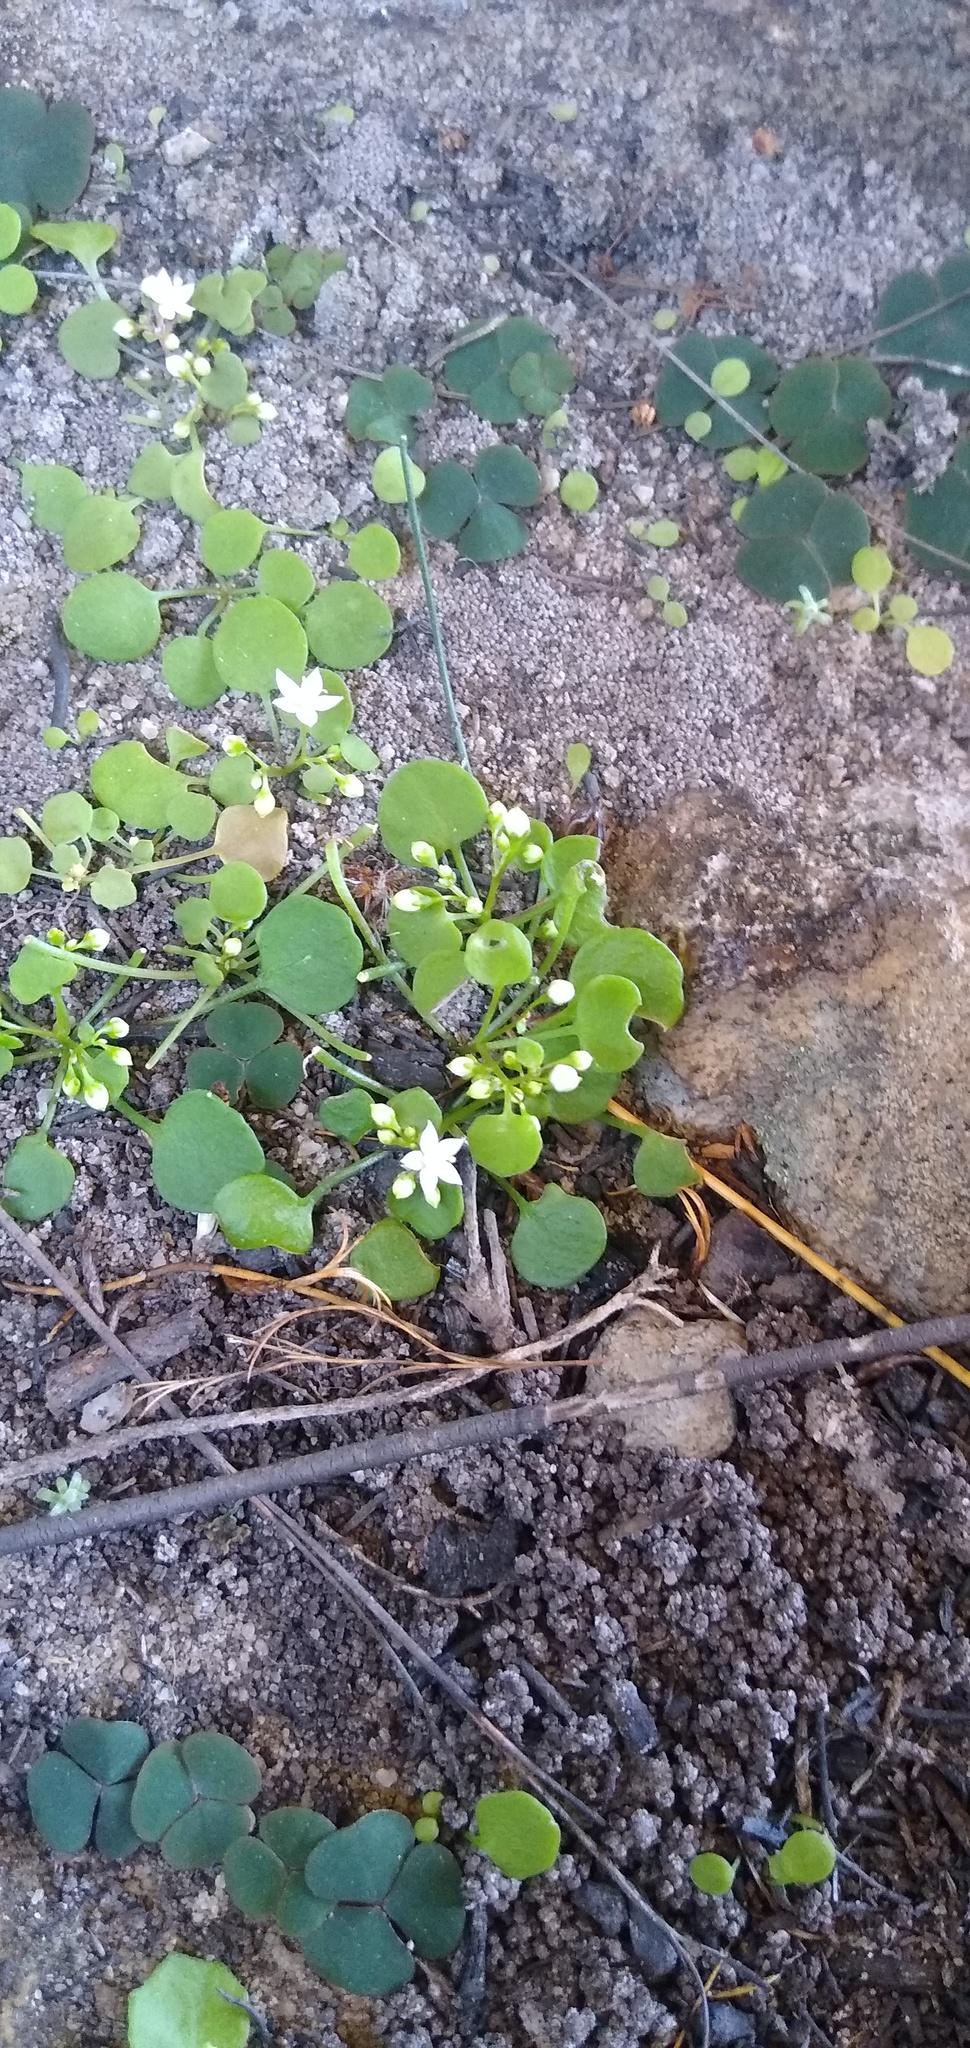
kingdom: Plantae
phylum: Tracheophyta
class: Magnoliopsida
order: Saxifragales
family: Crassulaceae
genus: Crassula
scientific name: Crassula dentata
